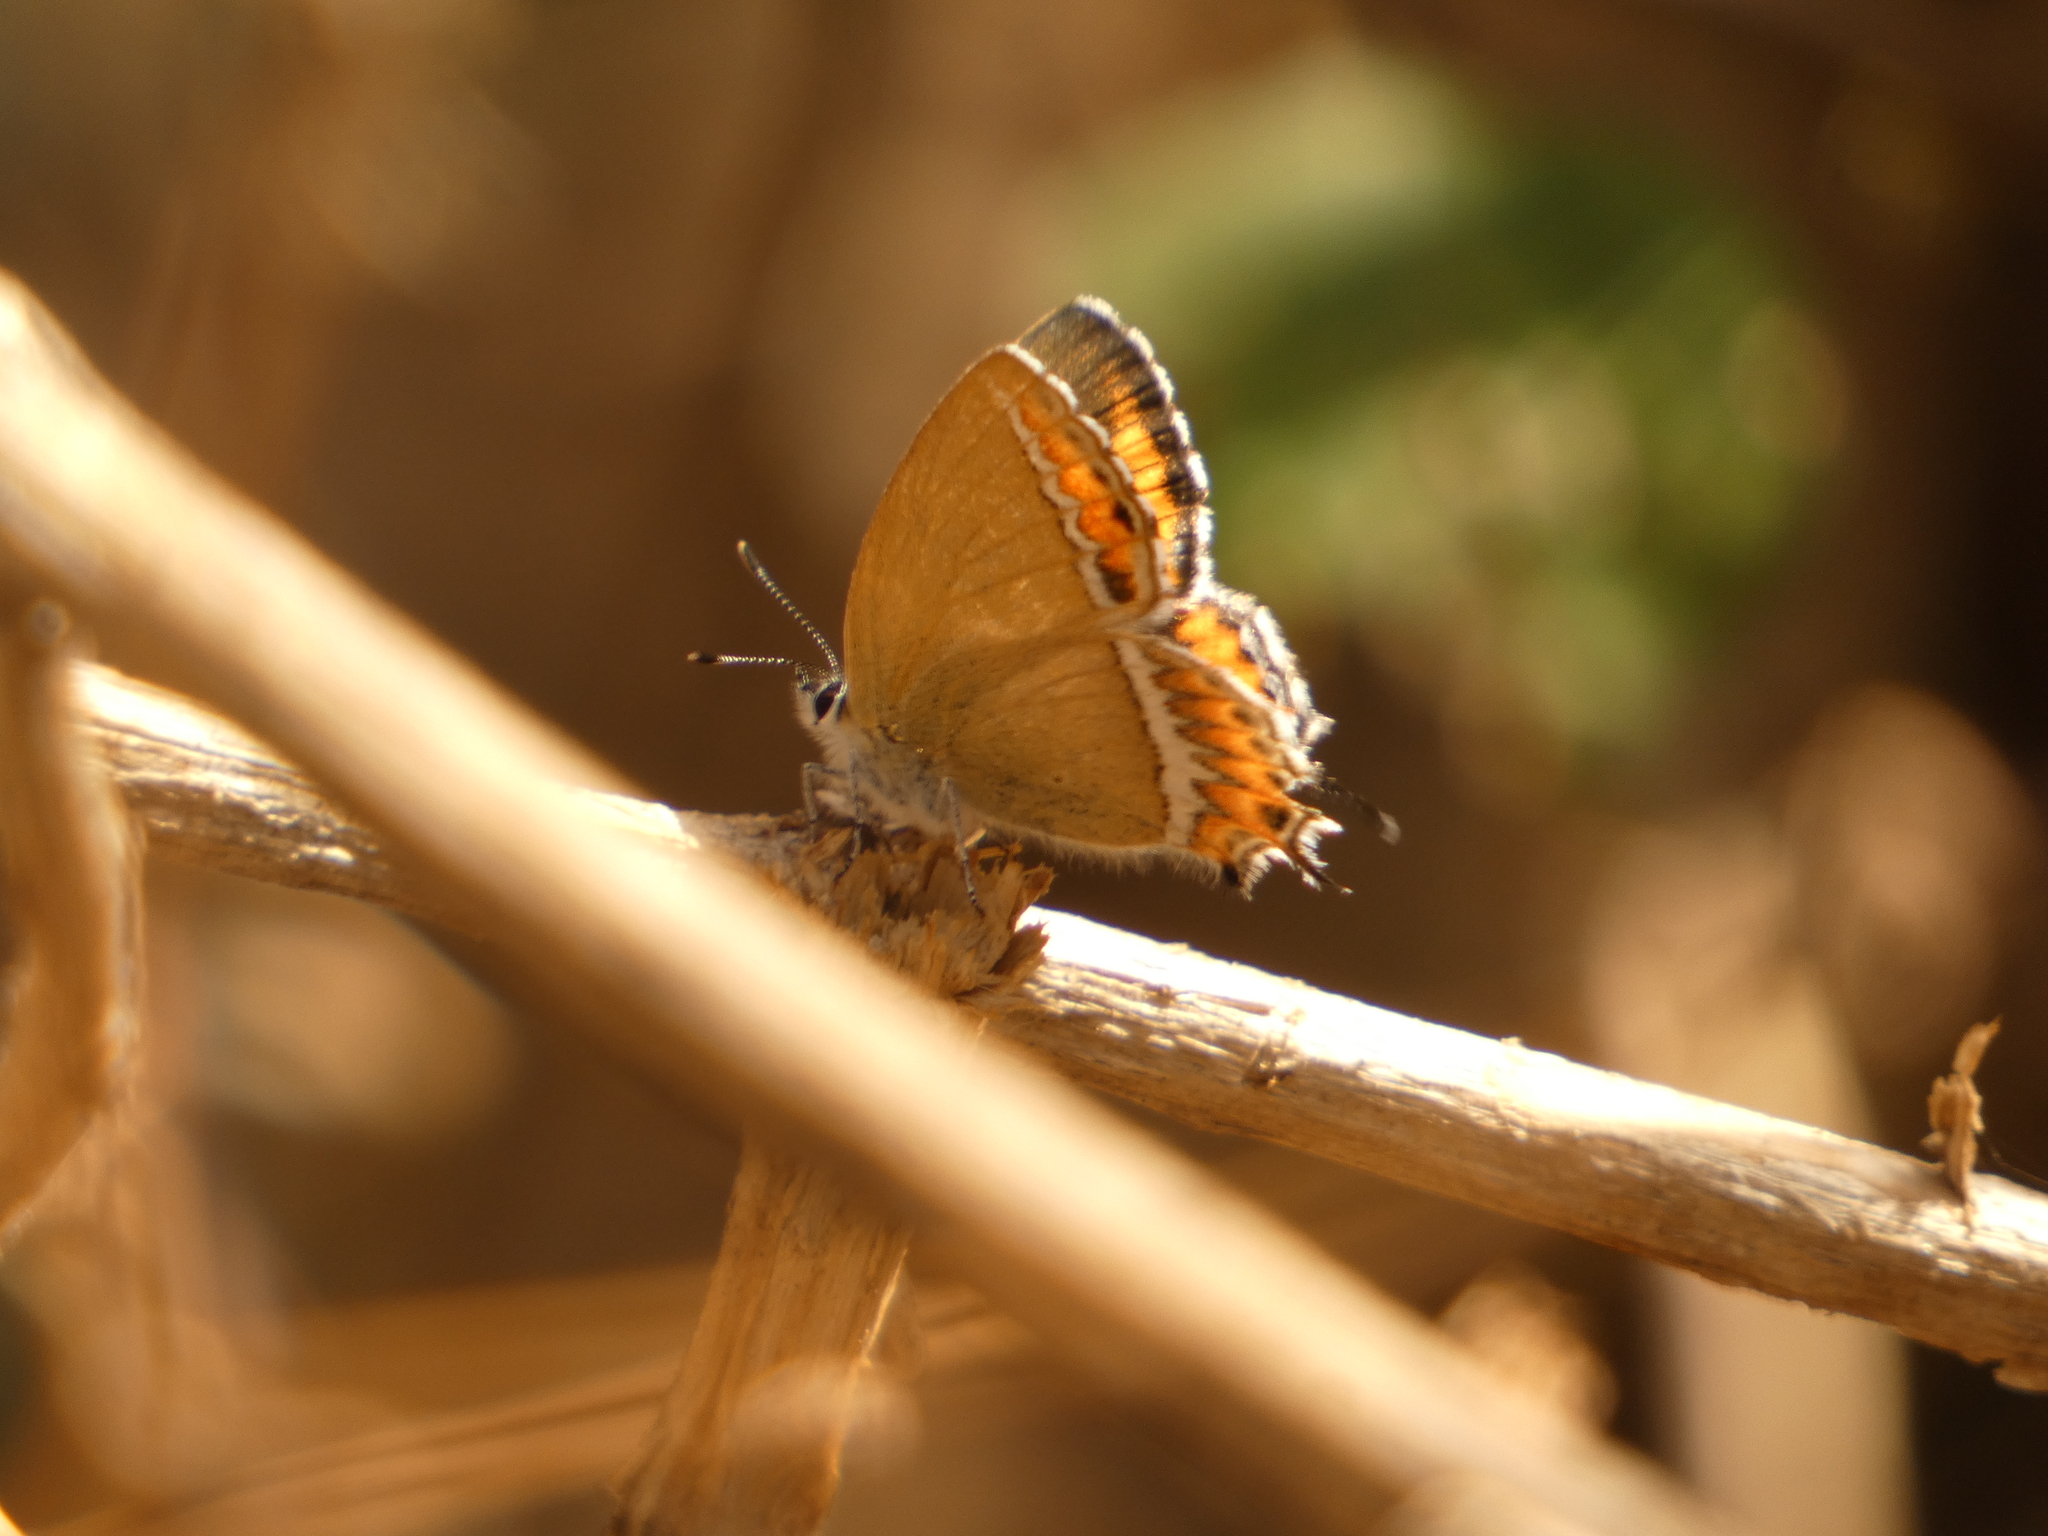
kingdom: Animalia
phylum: Arthropoda
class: Insecta
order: Lepidoptera
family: Lycaenidae
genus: Heliophorus
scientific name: Heliophorus sena
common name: Sorrel sapphire
